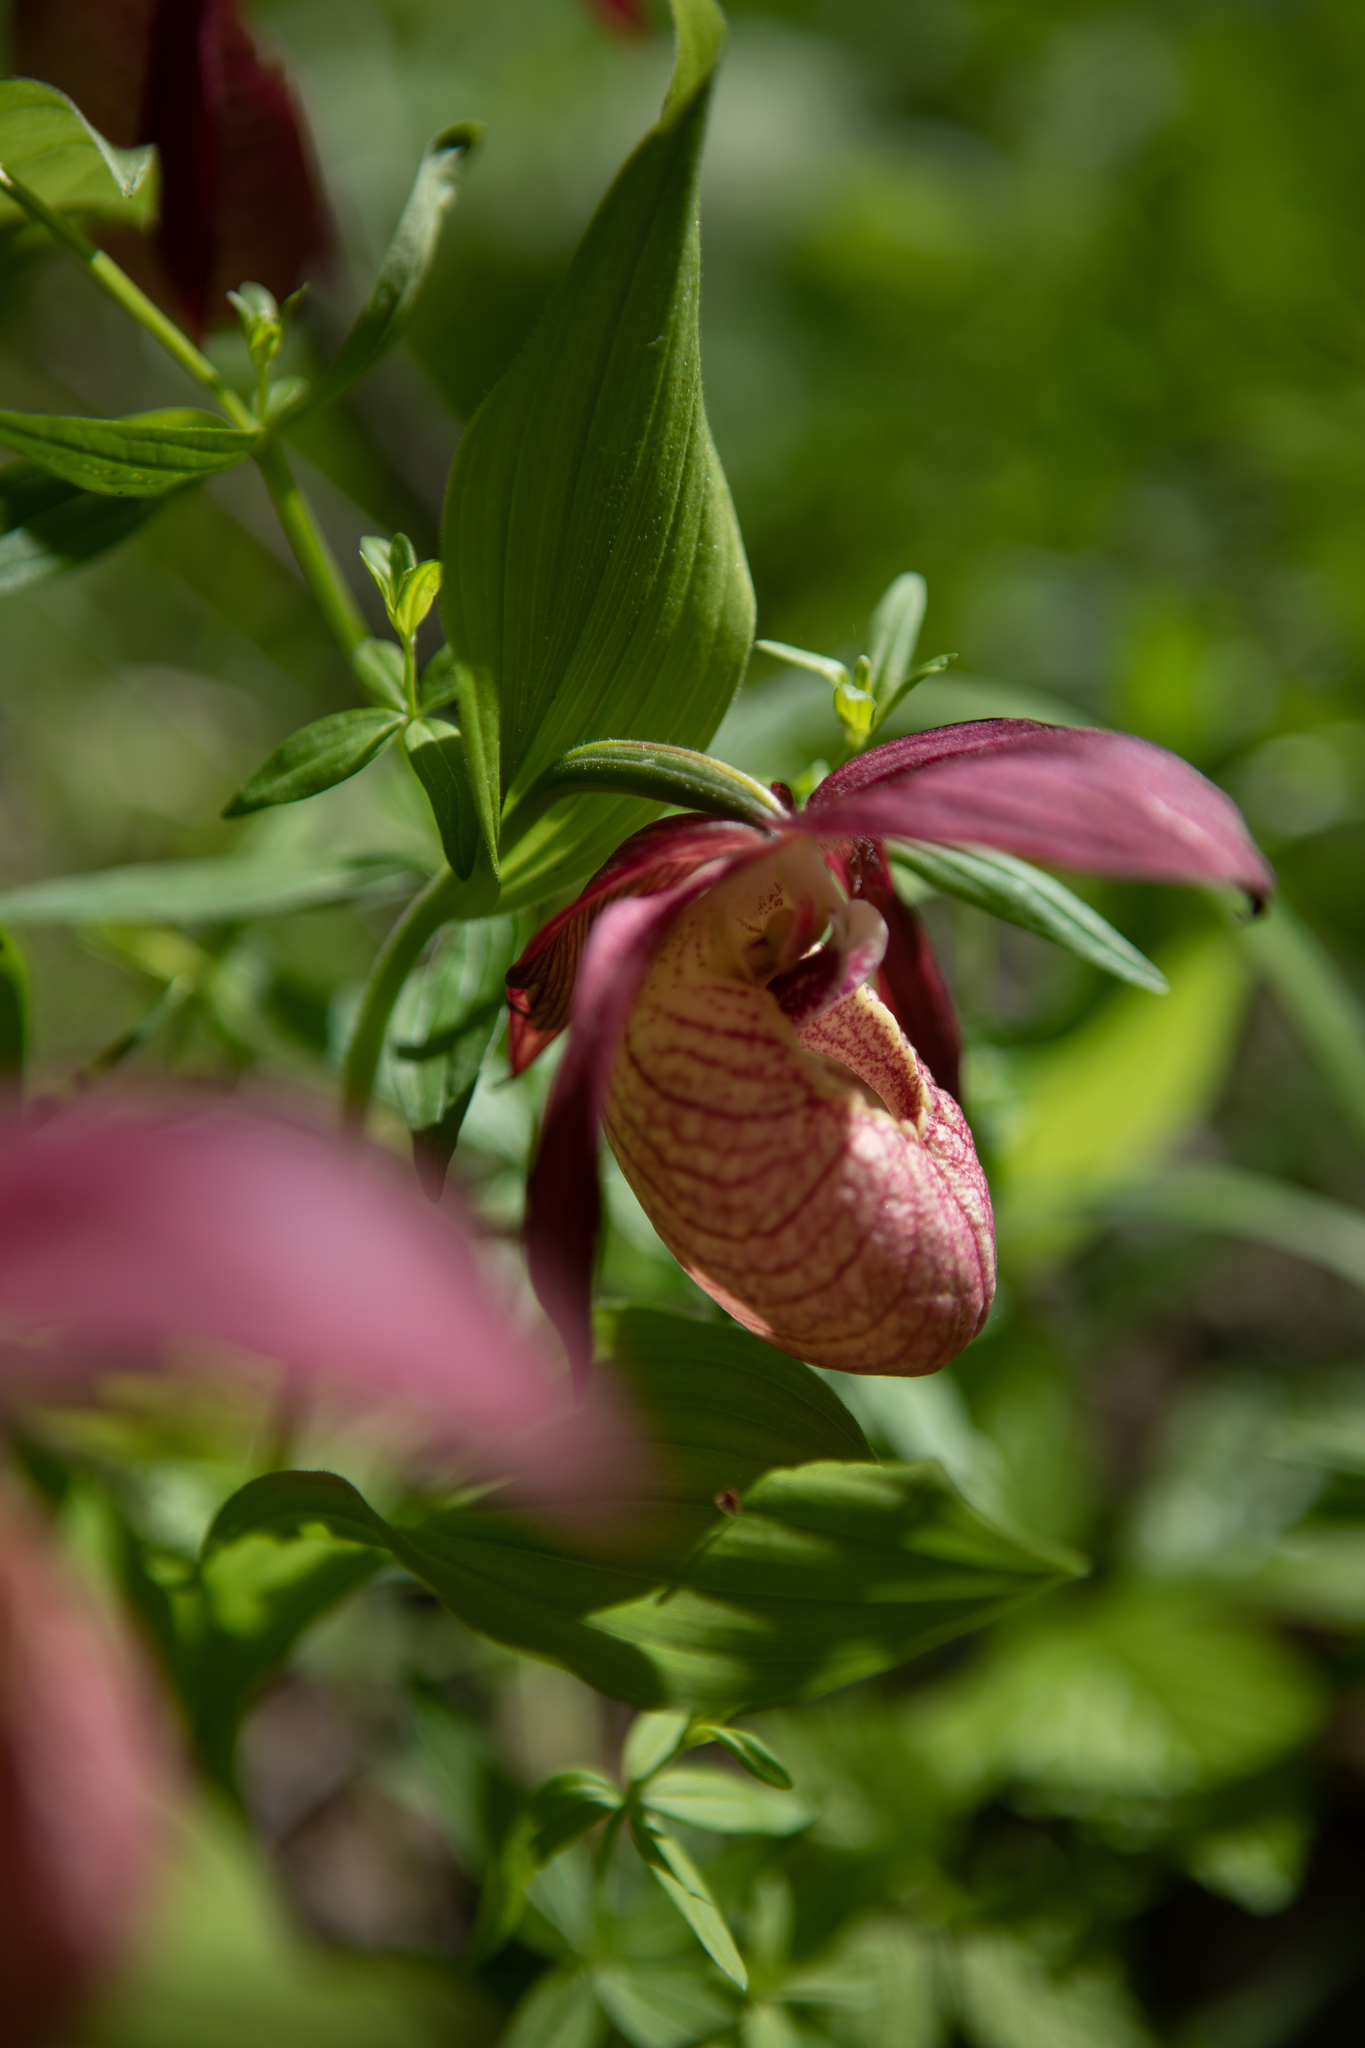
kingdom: Plantae
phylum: Tracheophyta
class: Liliopsida
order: Asparagales
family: Orchidaceae
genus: Cypripedium
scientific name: Cypripedium ventricosum
